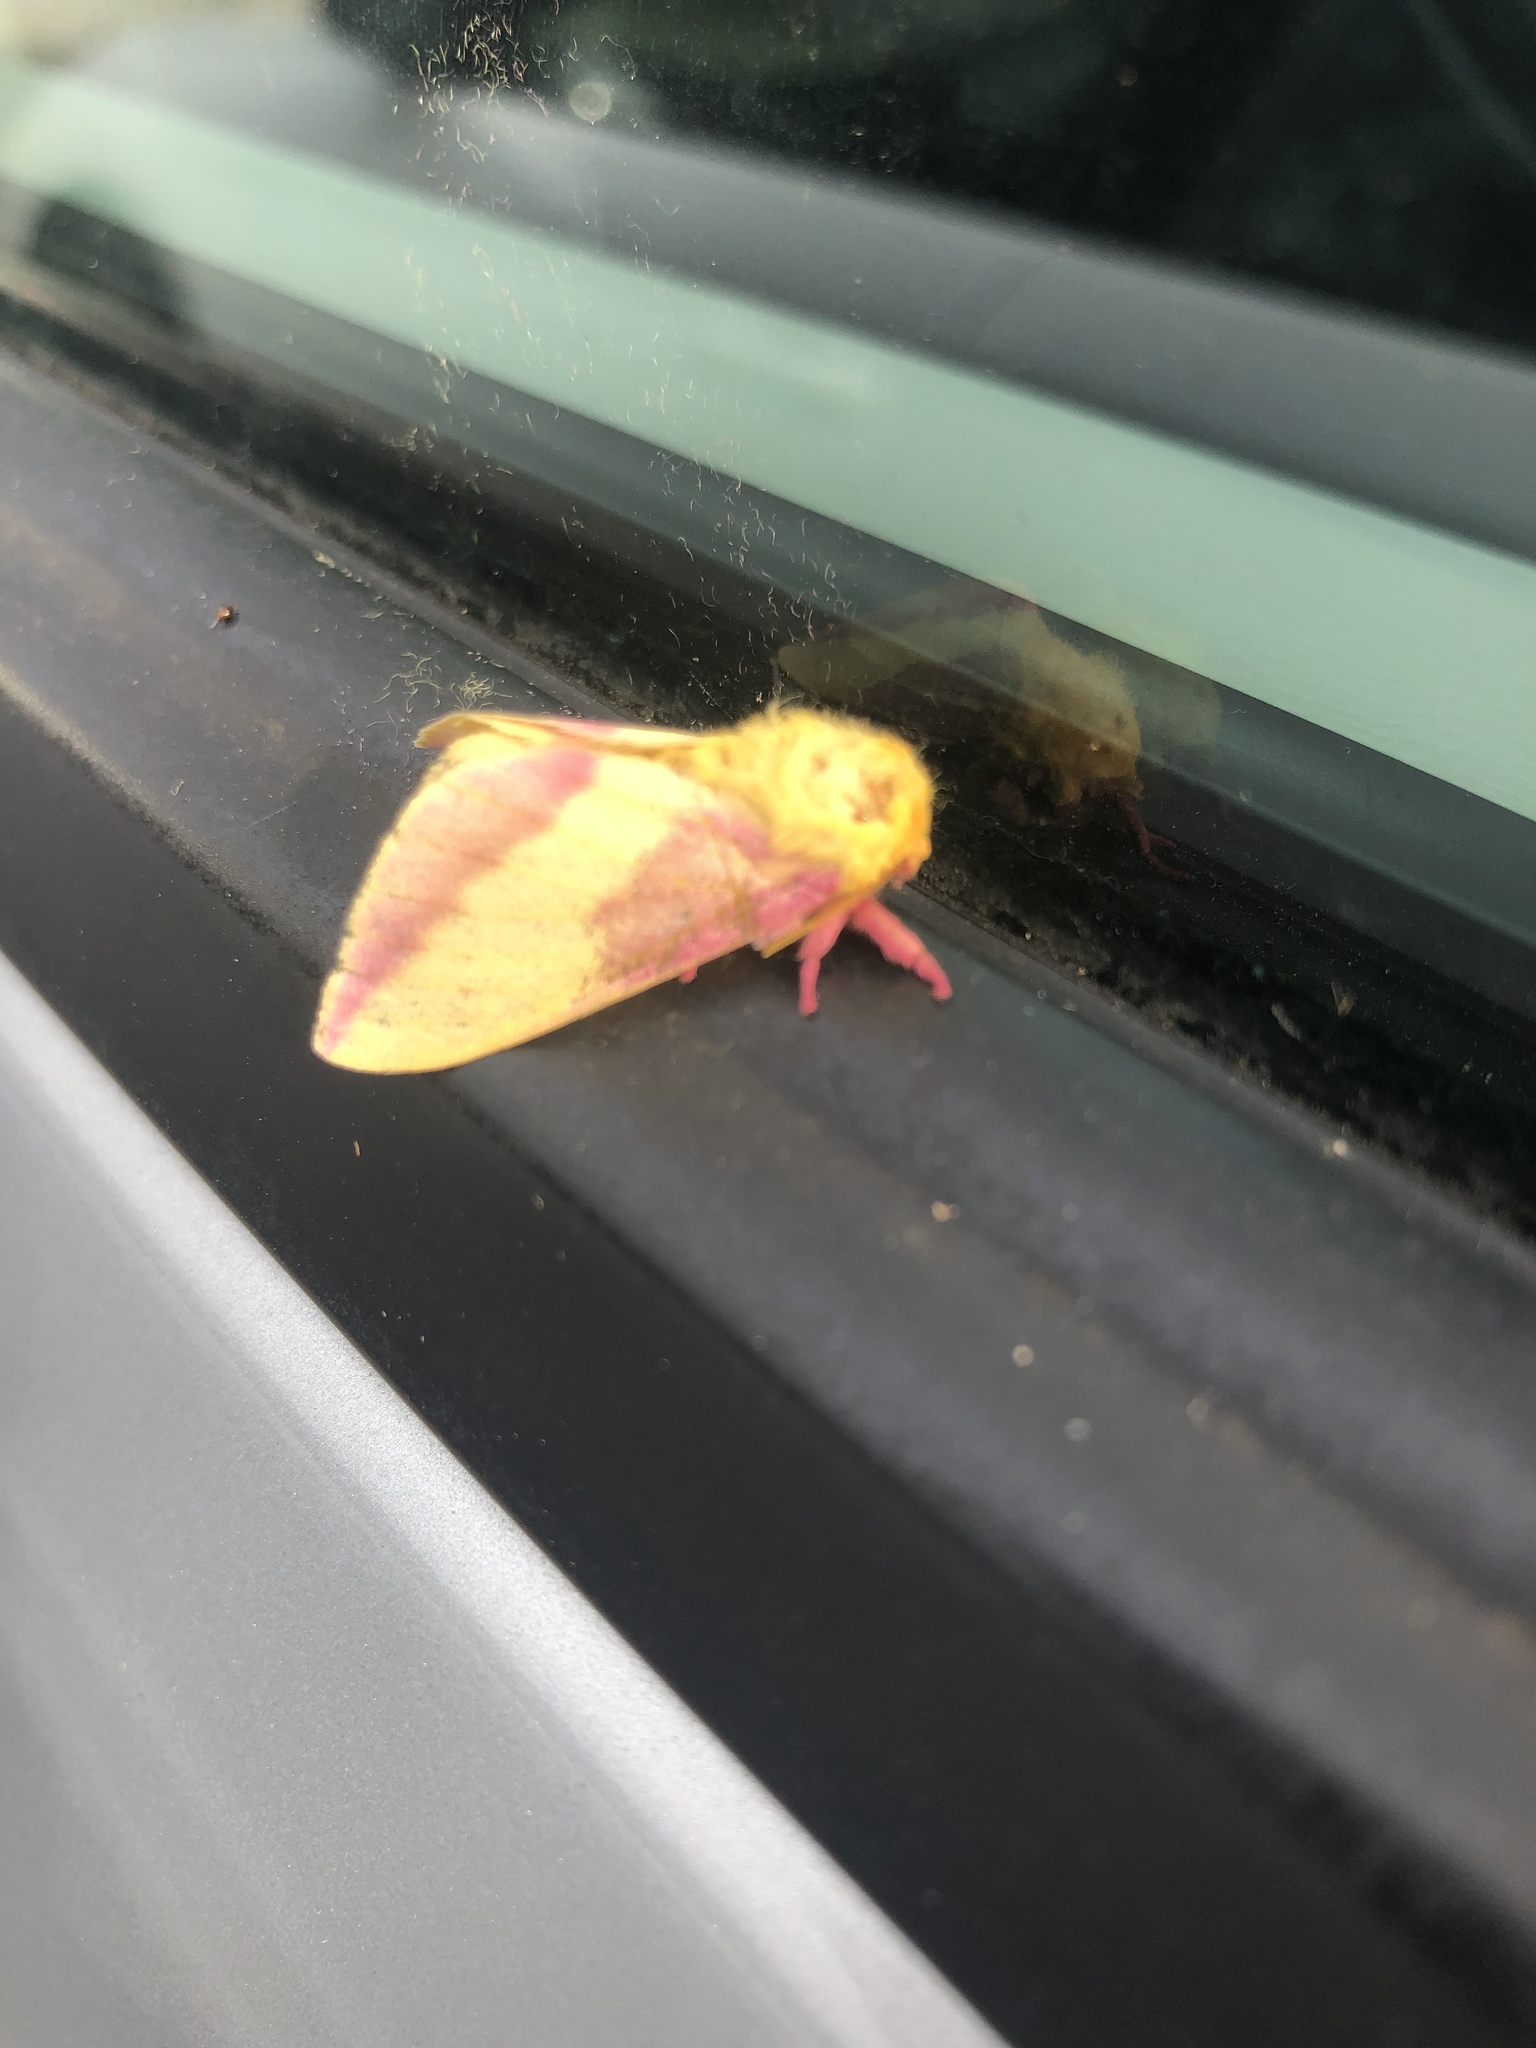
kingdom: Animalia
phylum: Arthropoda
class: Insecta
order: Lepidoptera
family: Saturniidae
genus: Dryocampa
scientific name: Dryocampa rubicunda
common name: Rosy maple moth
